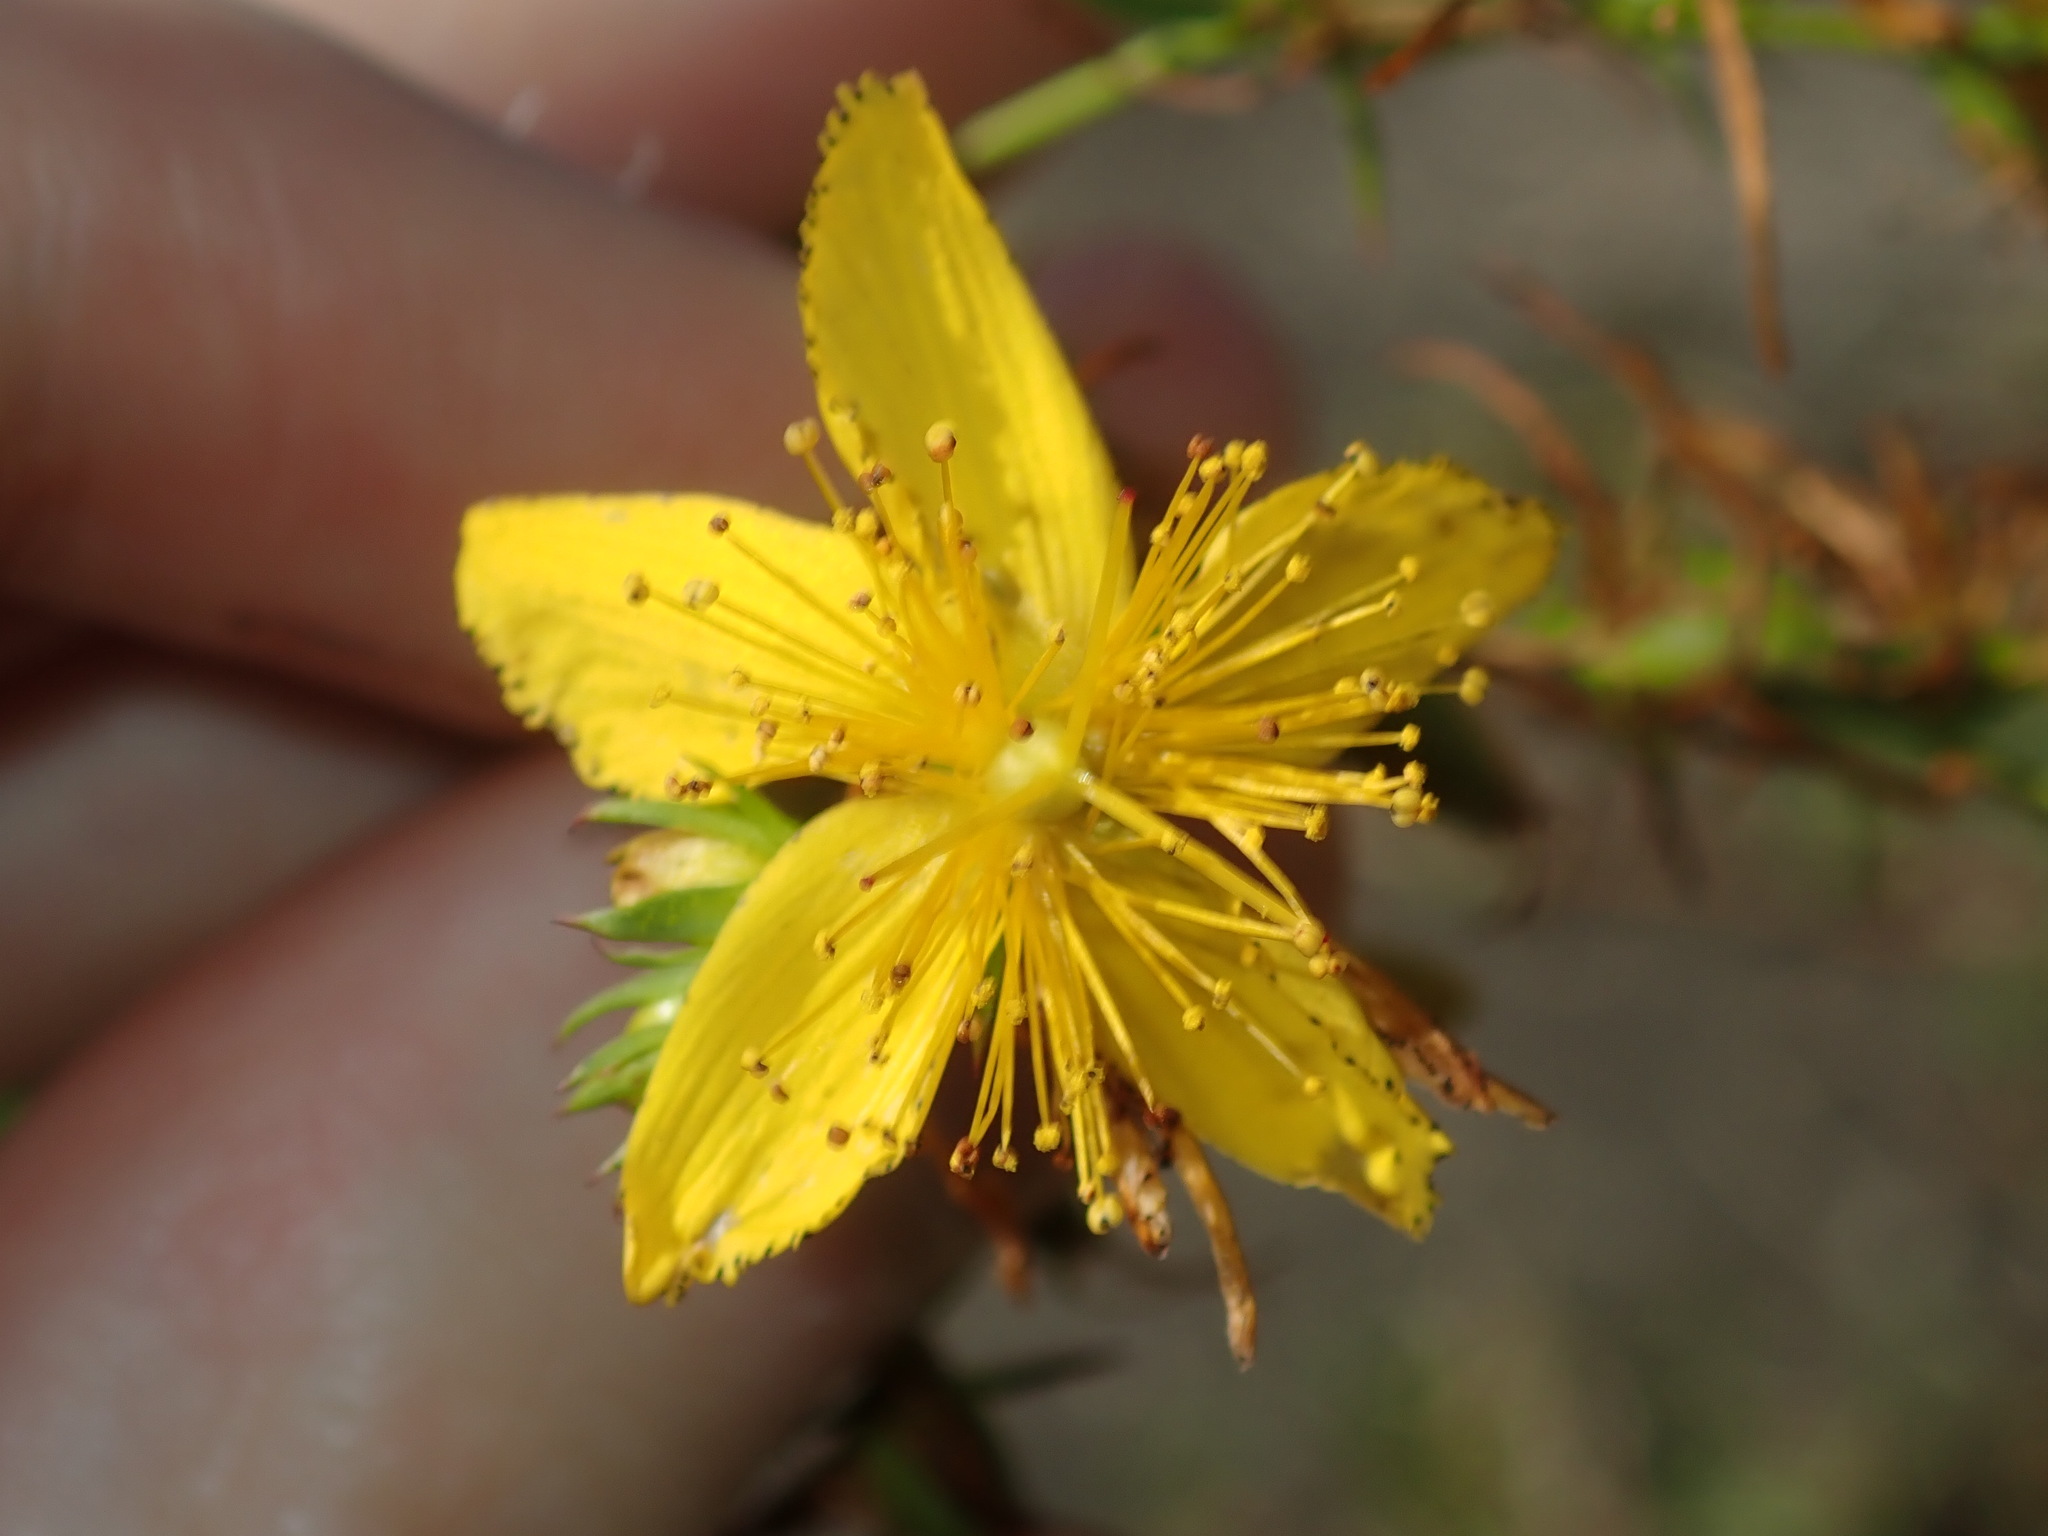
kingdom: Plantae
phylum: Tracheophyta
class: Magnoliopsida
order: Malpighiales
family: Hypericaceae
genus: Hypericum
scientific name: Hypericum perforatum
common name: Common st. johnswort
